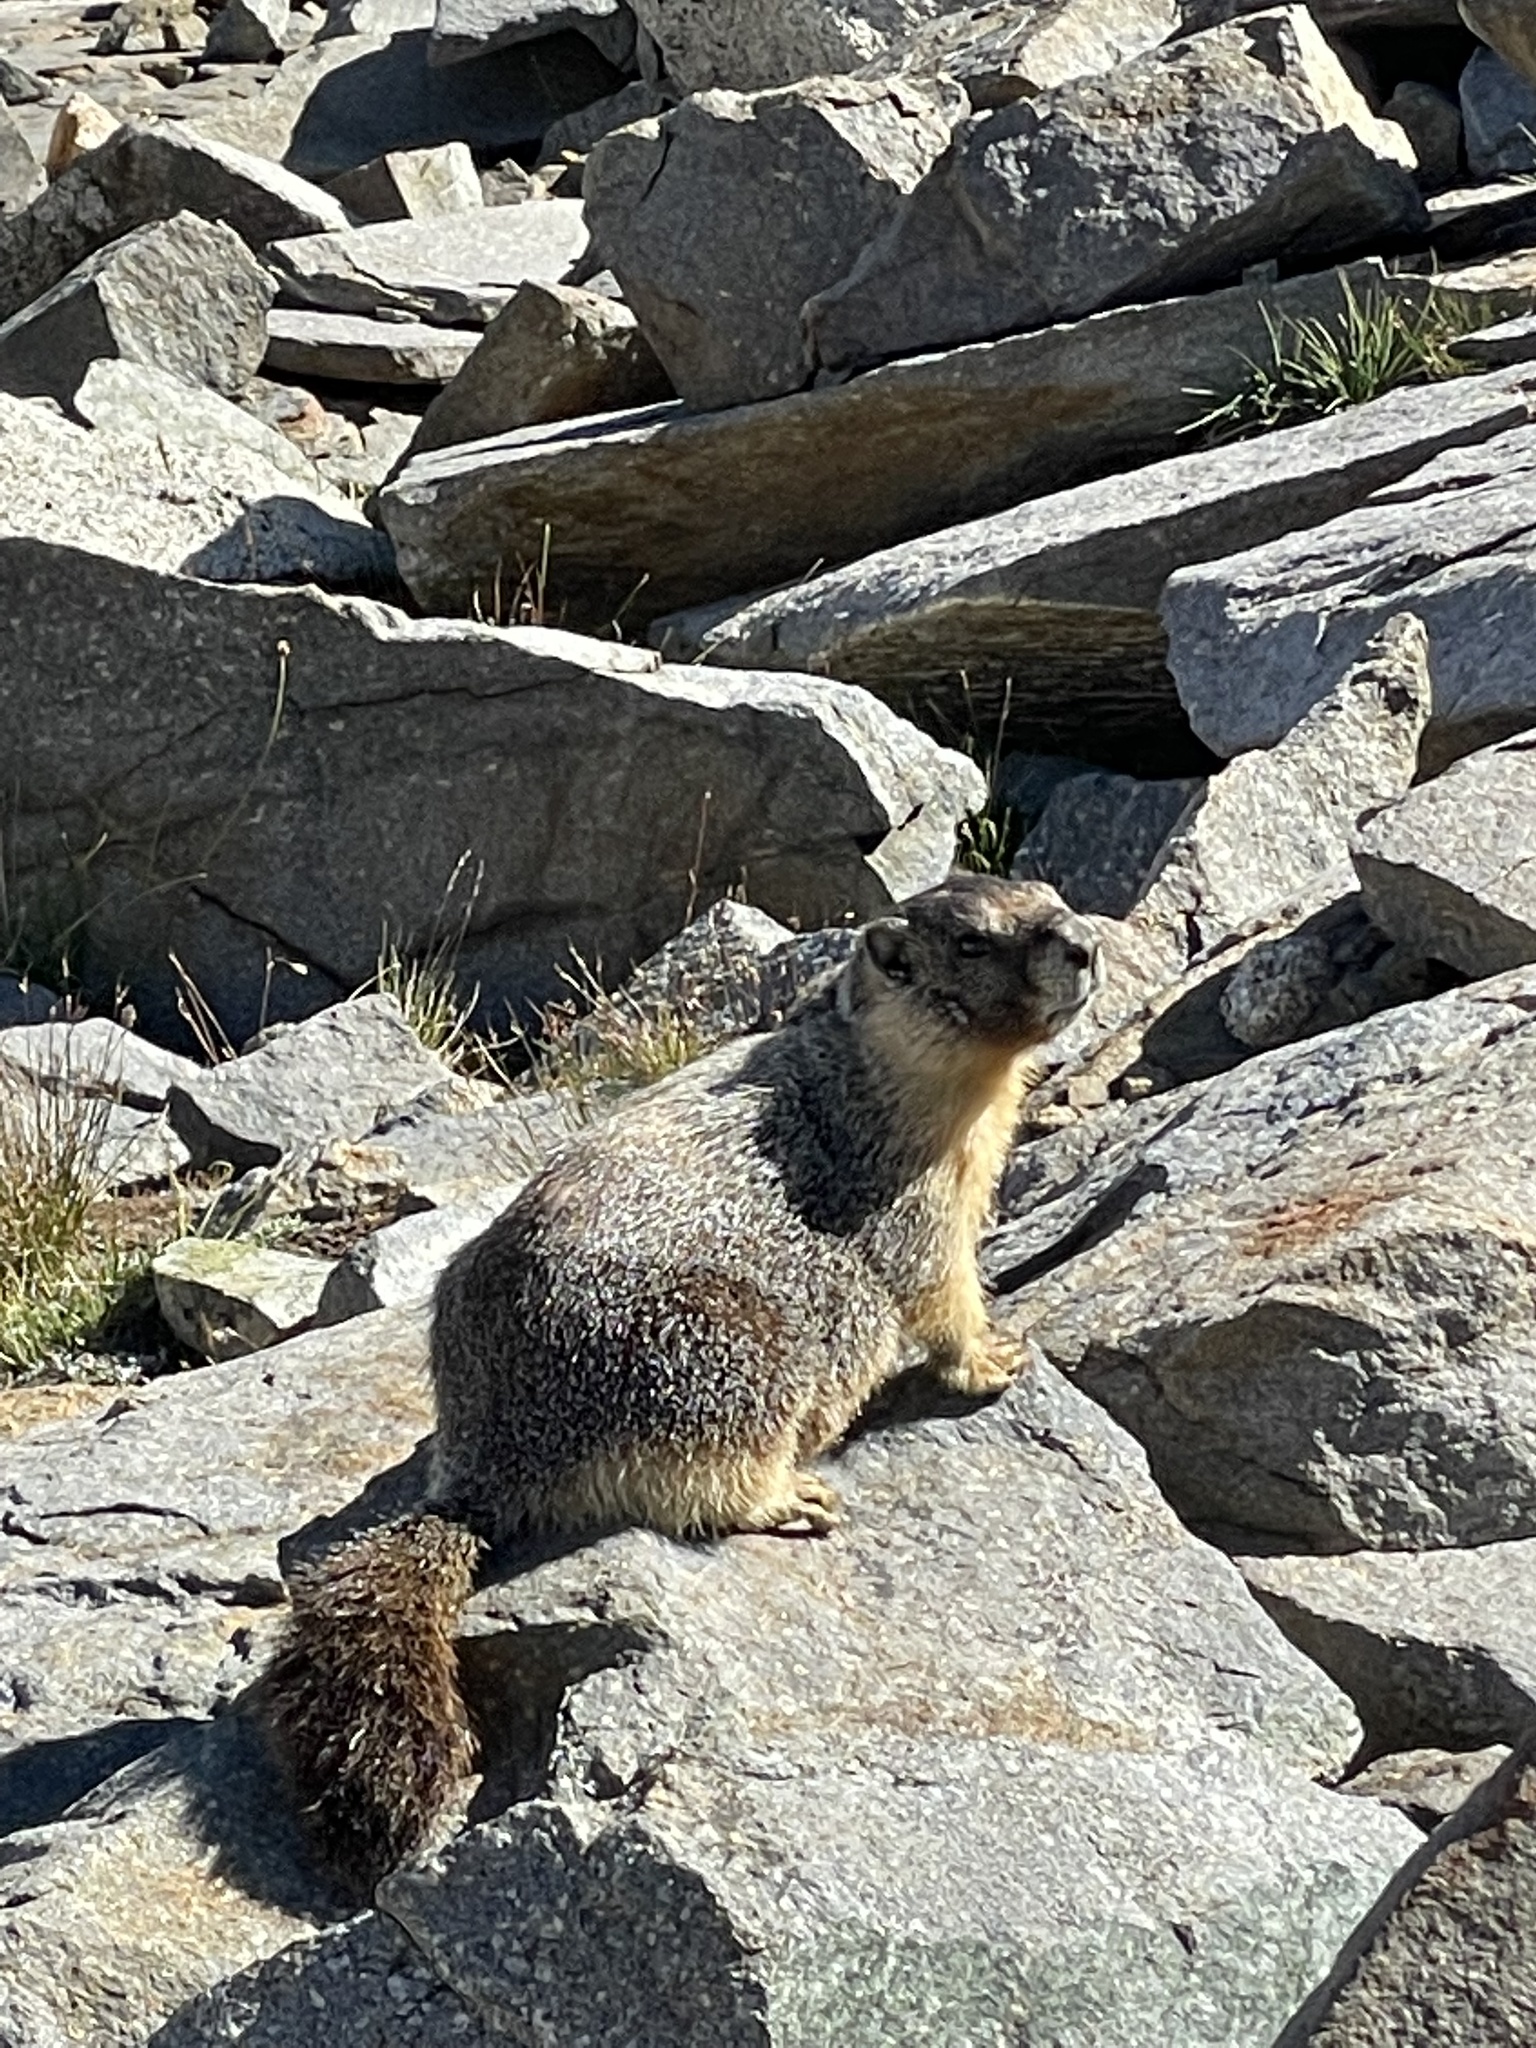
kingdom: Animalia
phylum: Chordata
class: Mammalia
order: Rodentia
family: Sciuridae
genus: Marmota
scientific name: Marmota flaviventris
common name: Yellow-bellied marmot
